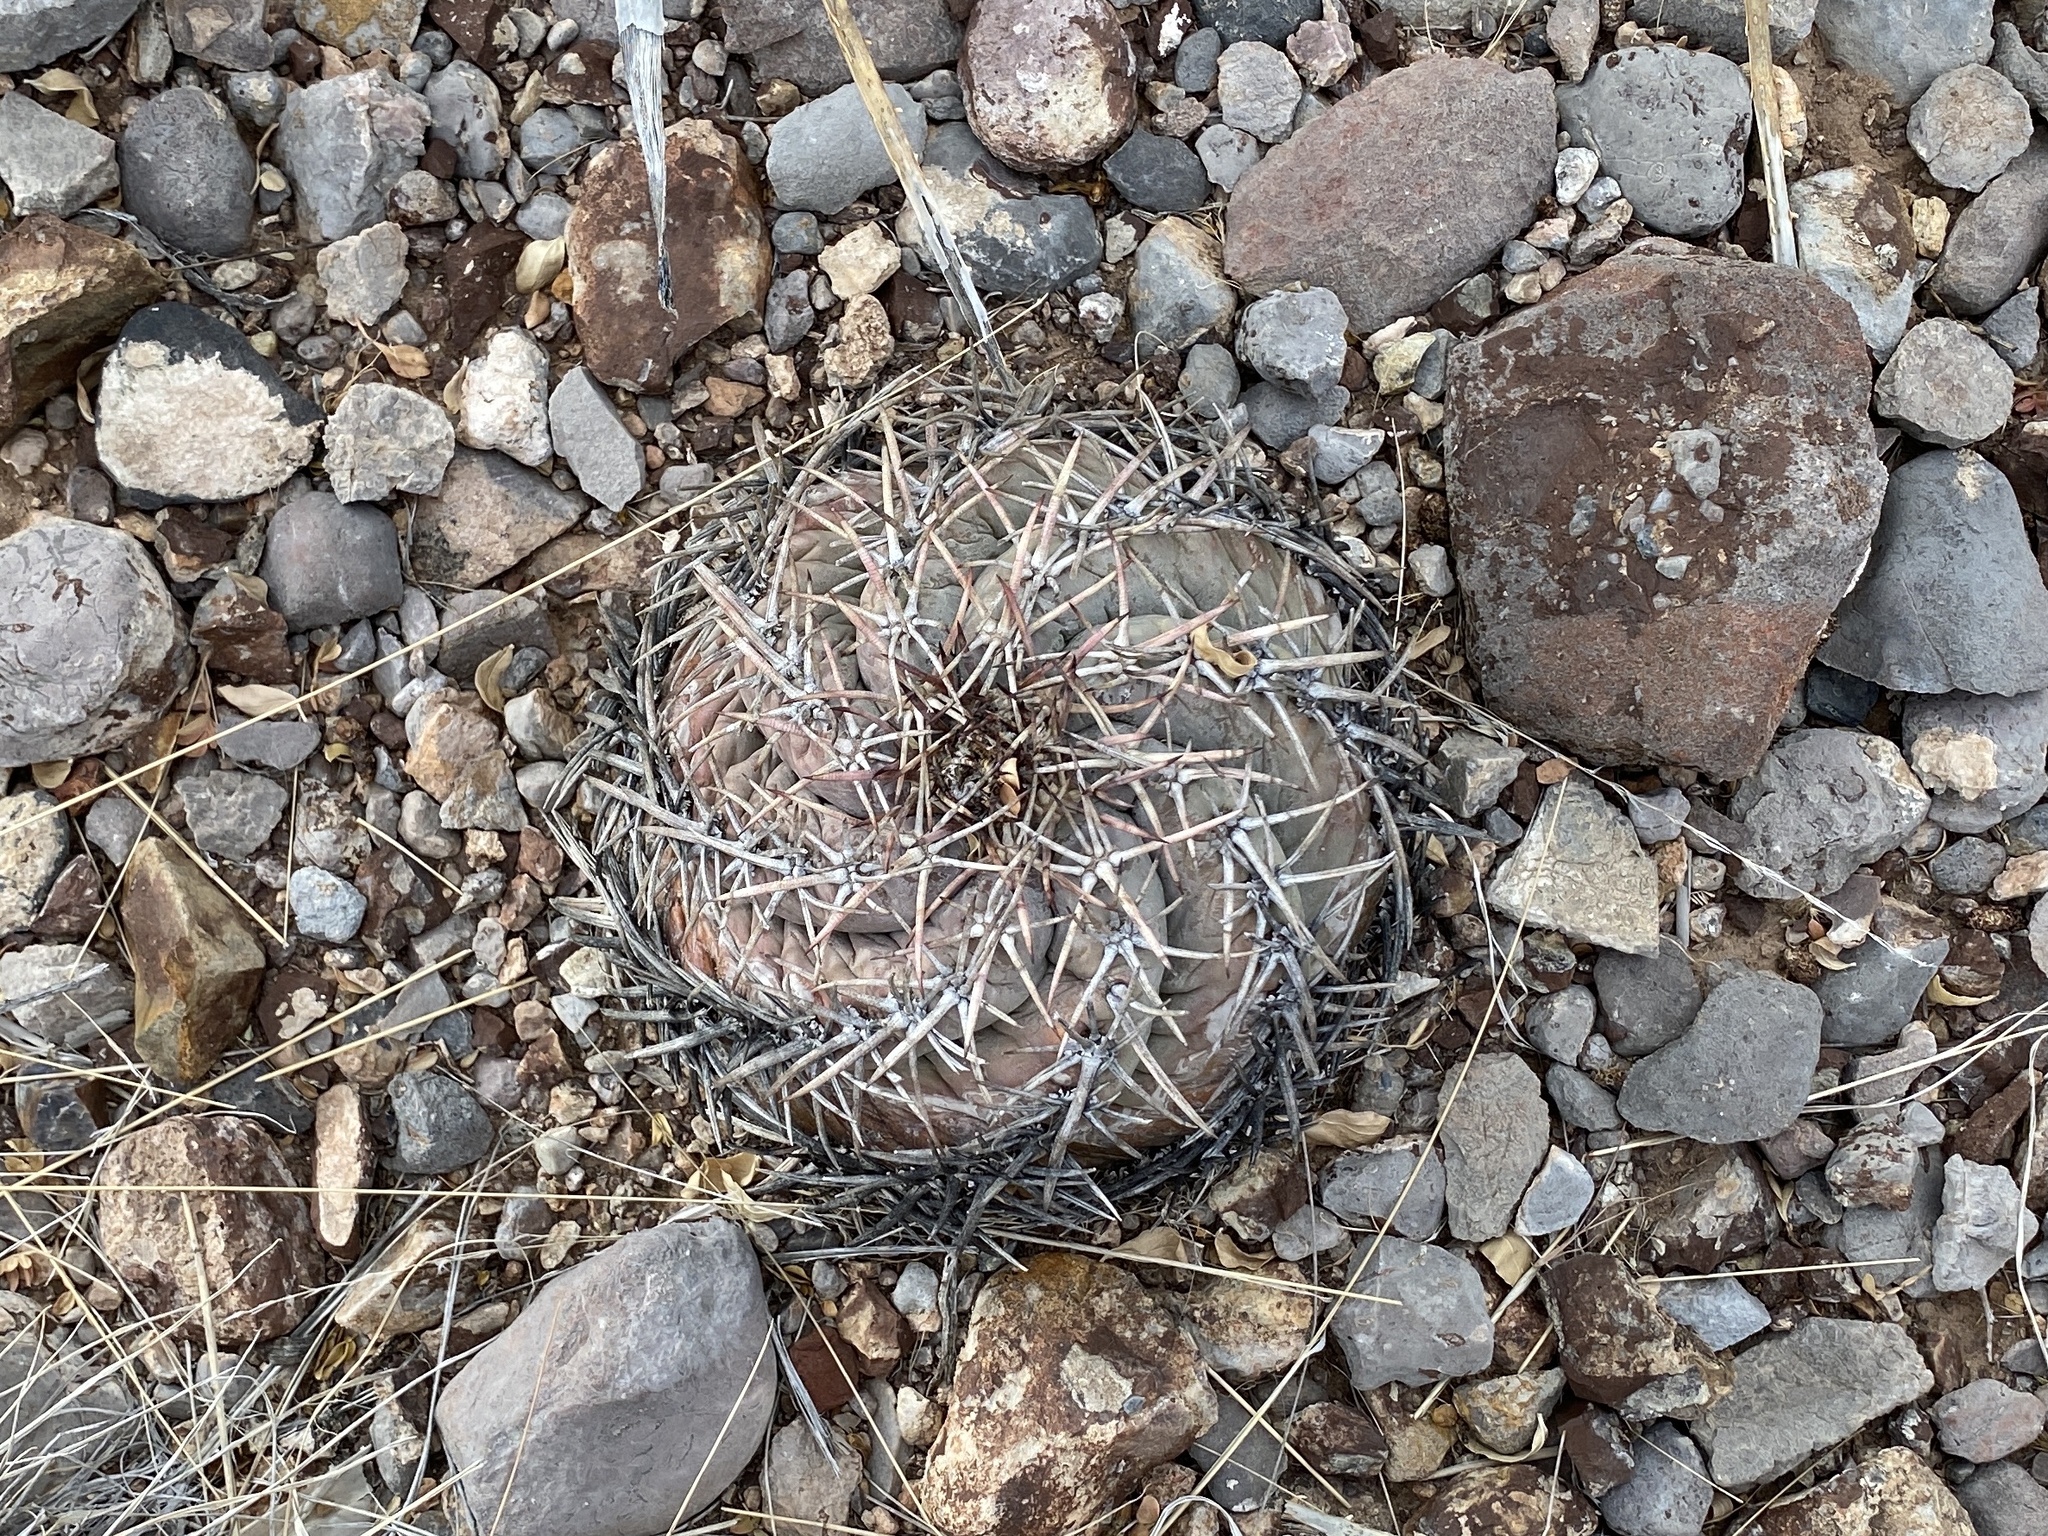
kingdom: Plantae
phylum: Tracheophyta
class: Magnoliopsida
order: Caryophyllales
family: Cactaceae
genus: Echinocactus
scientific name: Echinocactus horizonthalonius
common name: Devilshead
